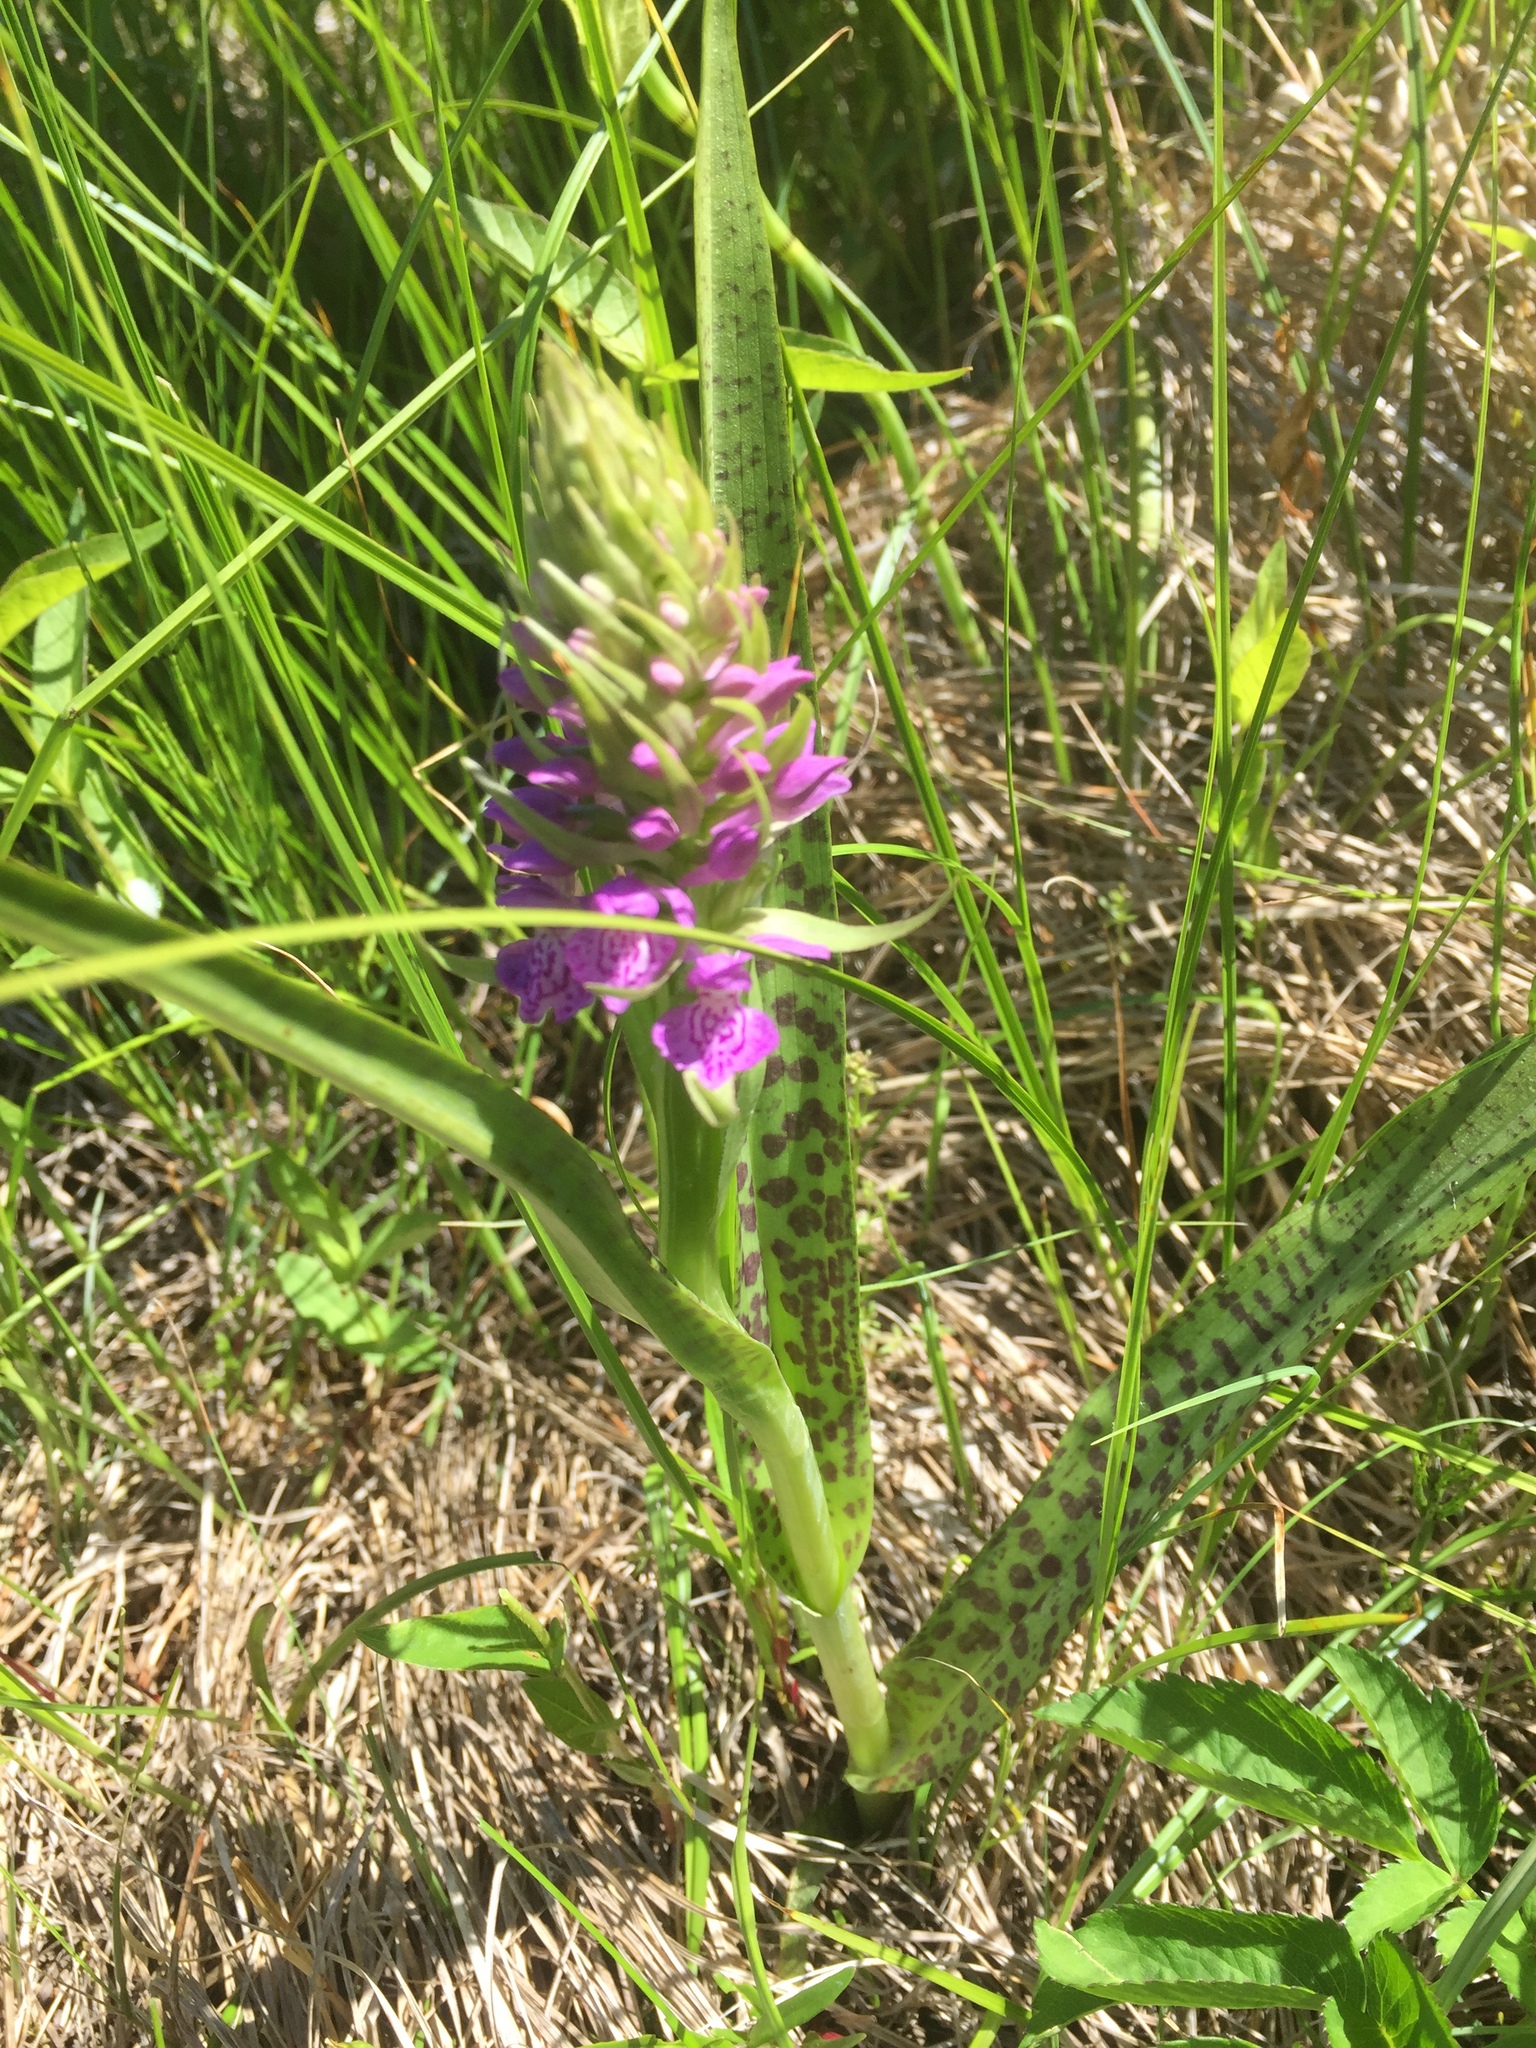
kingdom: Plantae
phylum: Tracheophyta
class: Liliopsida
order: Asparagales
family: Orchidaceae
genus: Dactylorhiza
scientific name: Dactylorhiza majalis
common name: Marsh orchid
